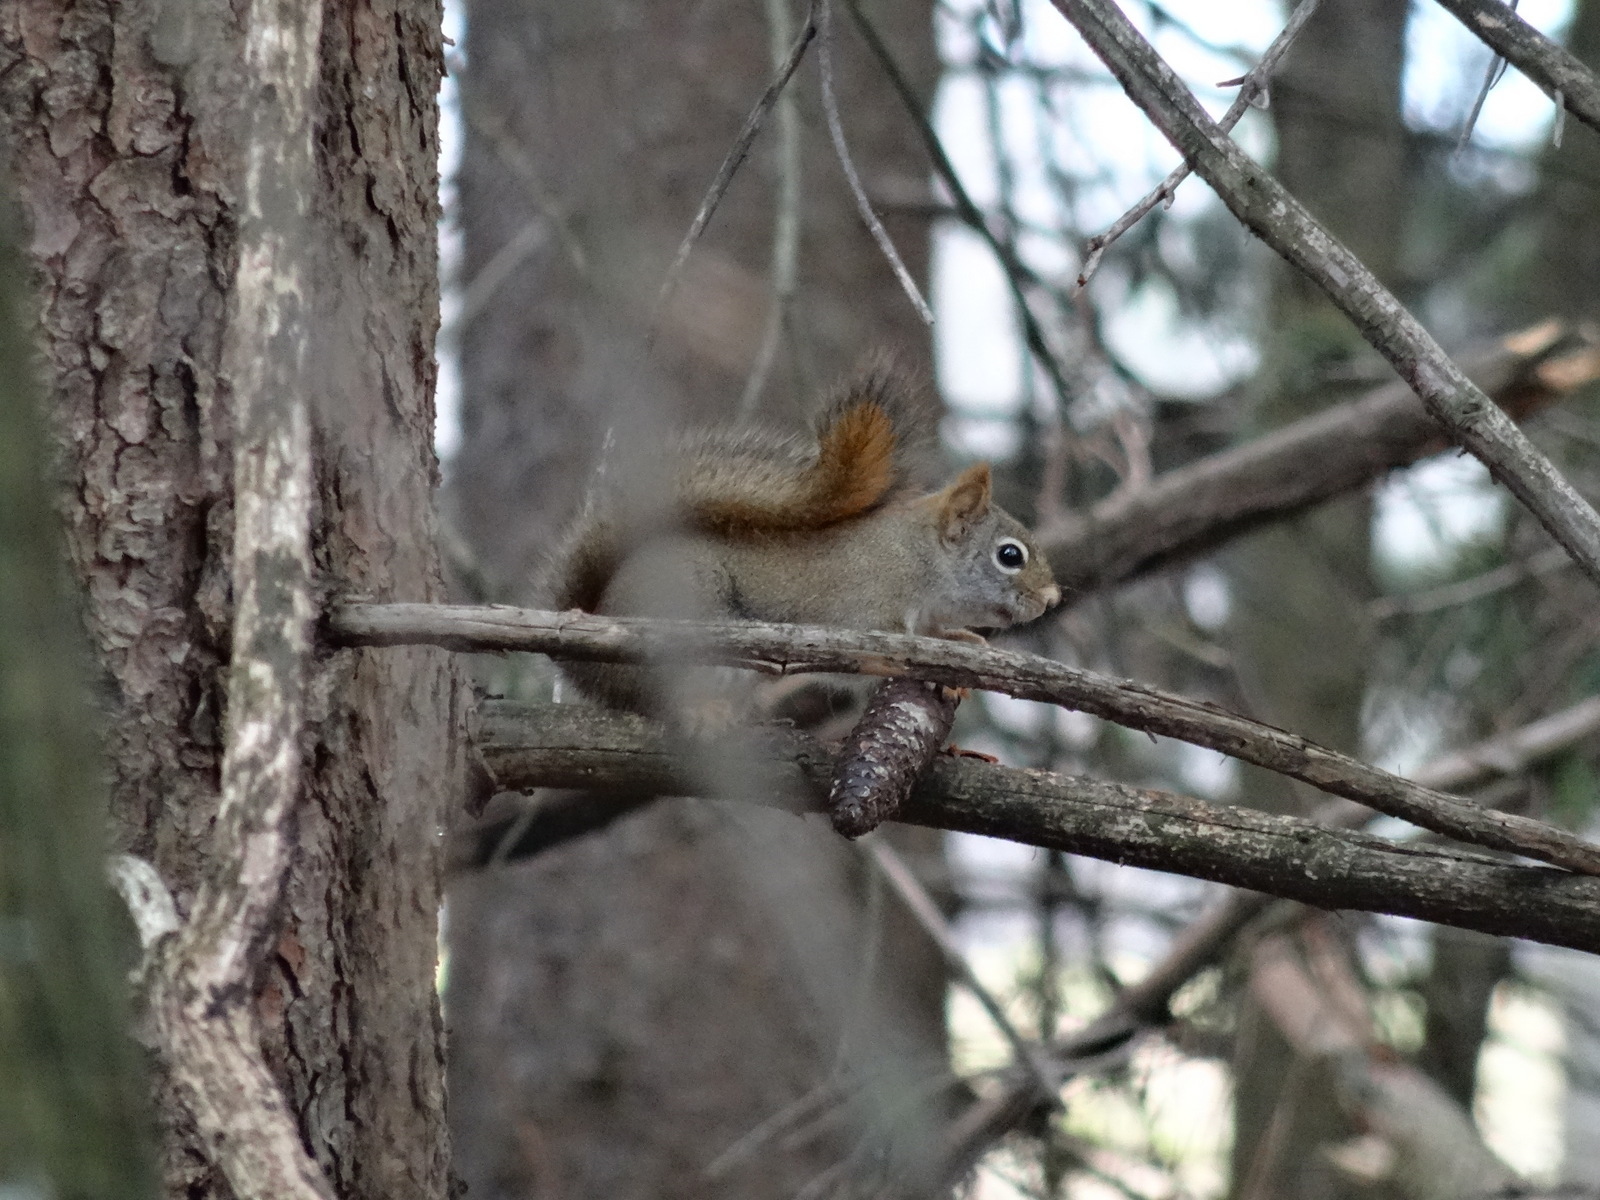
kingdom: Animalia
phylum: Chordata
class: Mammalia
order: Rodentia
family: Sciuridae
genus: Tamiasciurus
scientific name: Tamiasciurus hudsonicus
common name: Red squirrel
